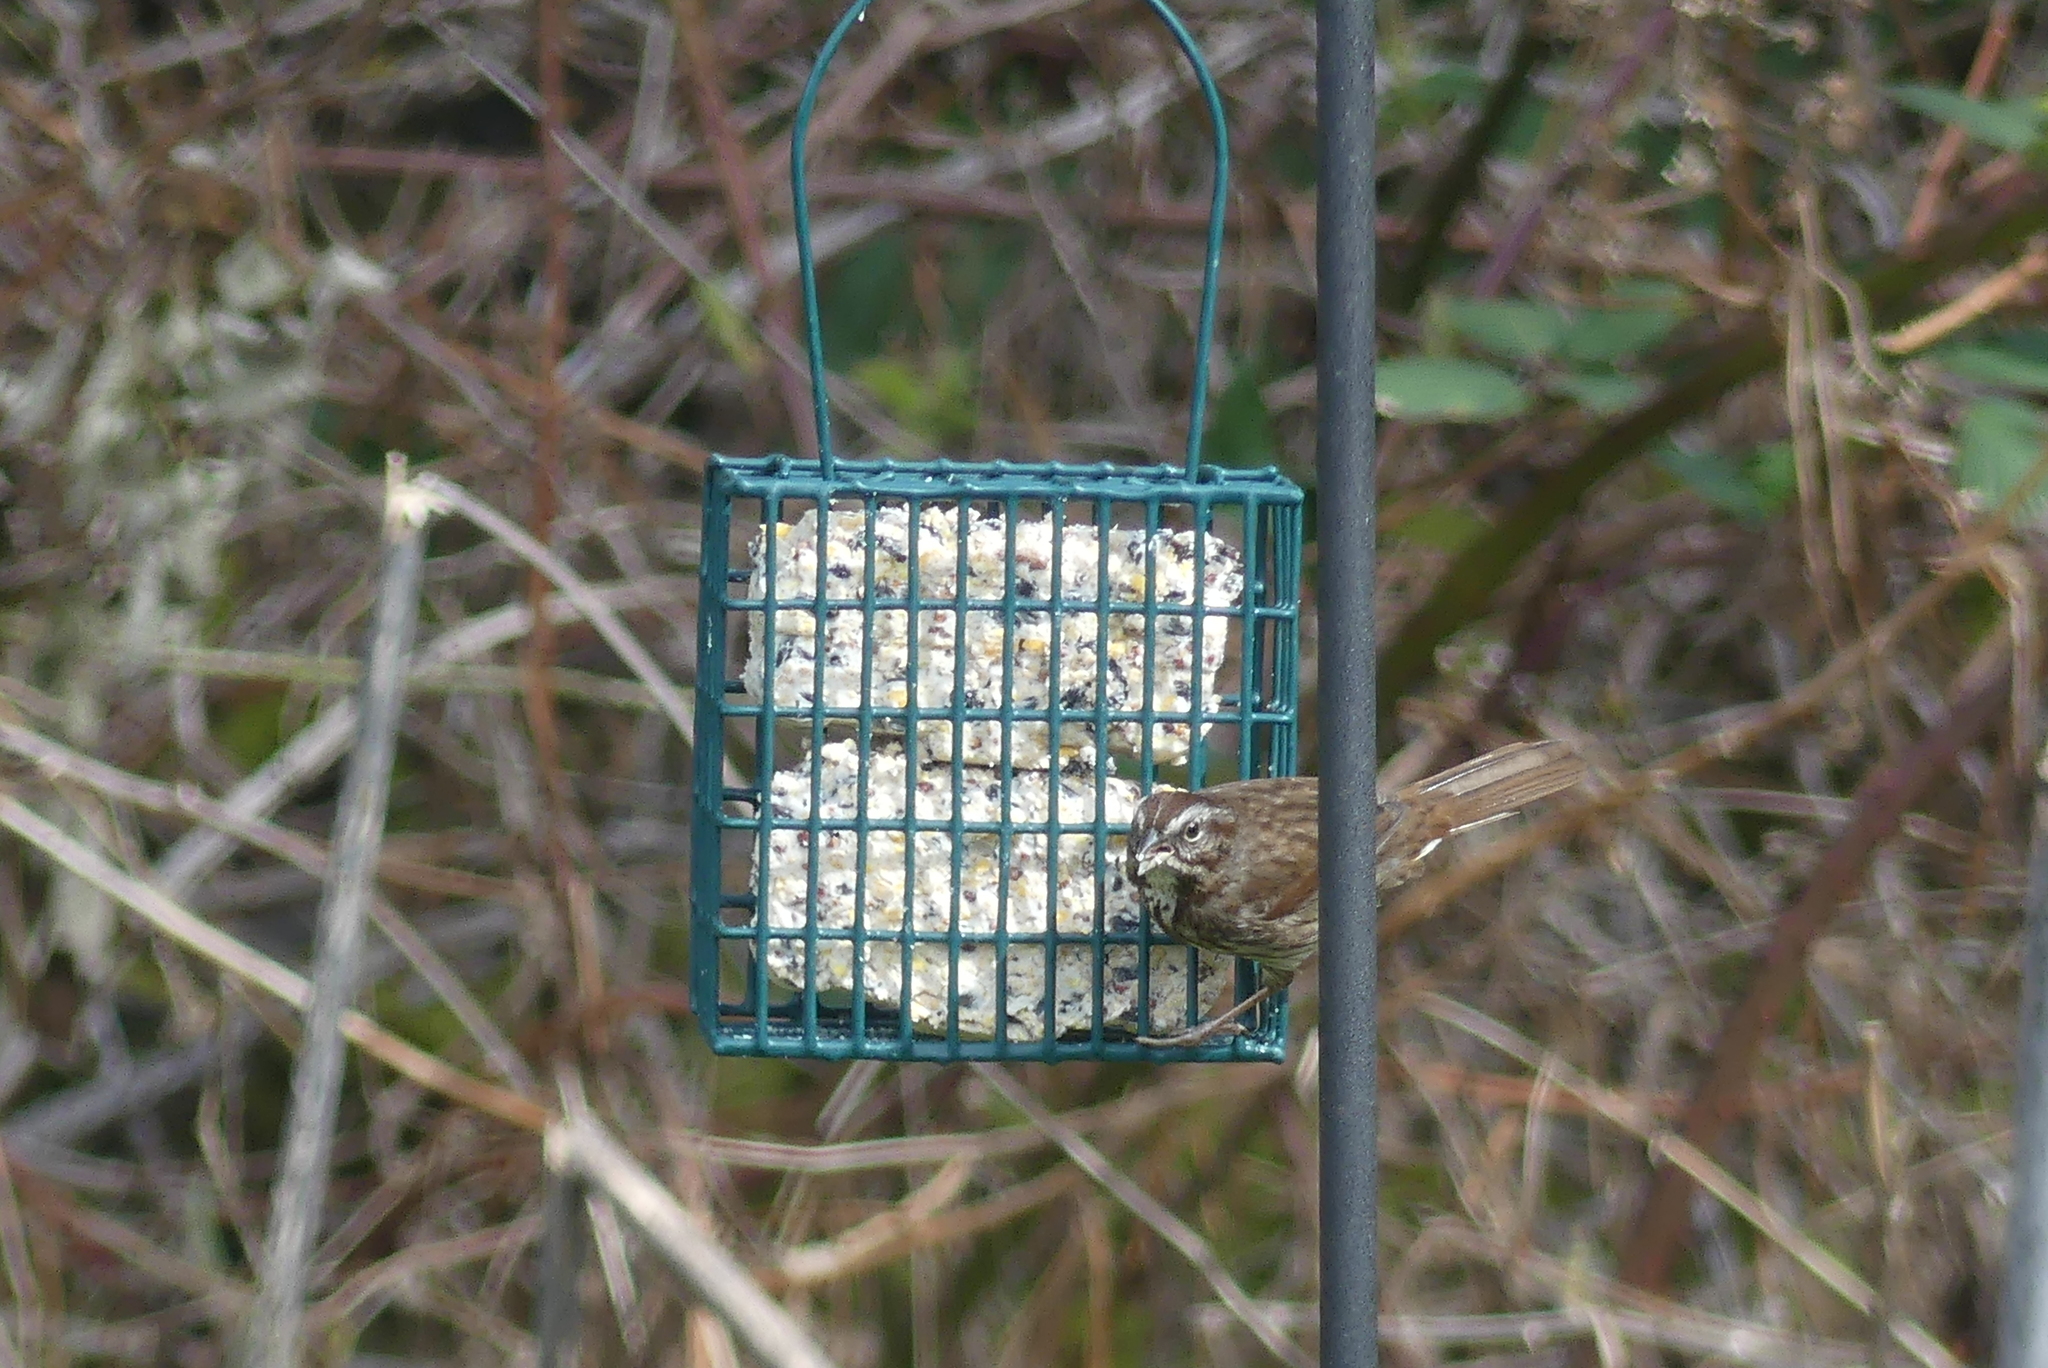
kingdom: Animalia
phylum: Chordata
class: Aves
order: Passeriformes
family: Passerellidae
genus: Melospiza
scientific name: Melospiza melodia
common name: Song sparrow
